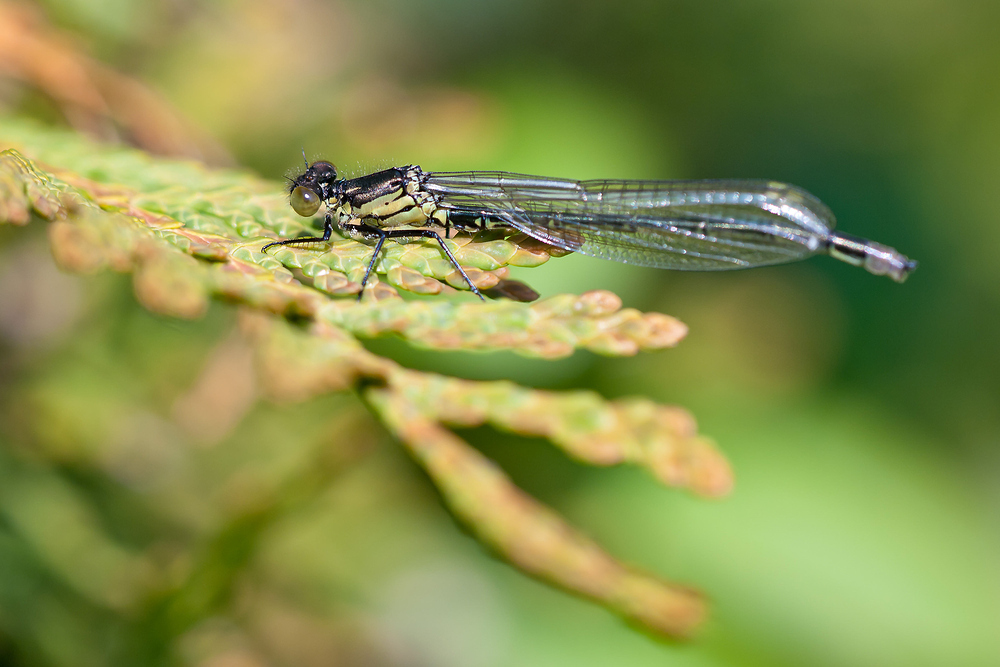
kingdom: Animalia
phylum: Arthropoda
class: Insecta
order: Odonata
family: Coenagrionidae
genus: Erythromma
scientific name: Erythromma najas
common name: Red-eyed damselfly
